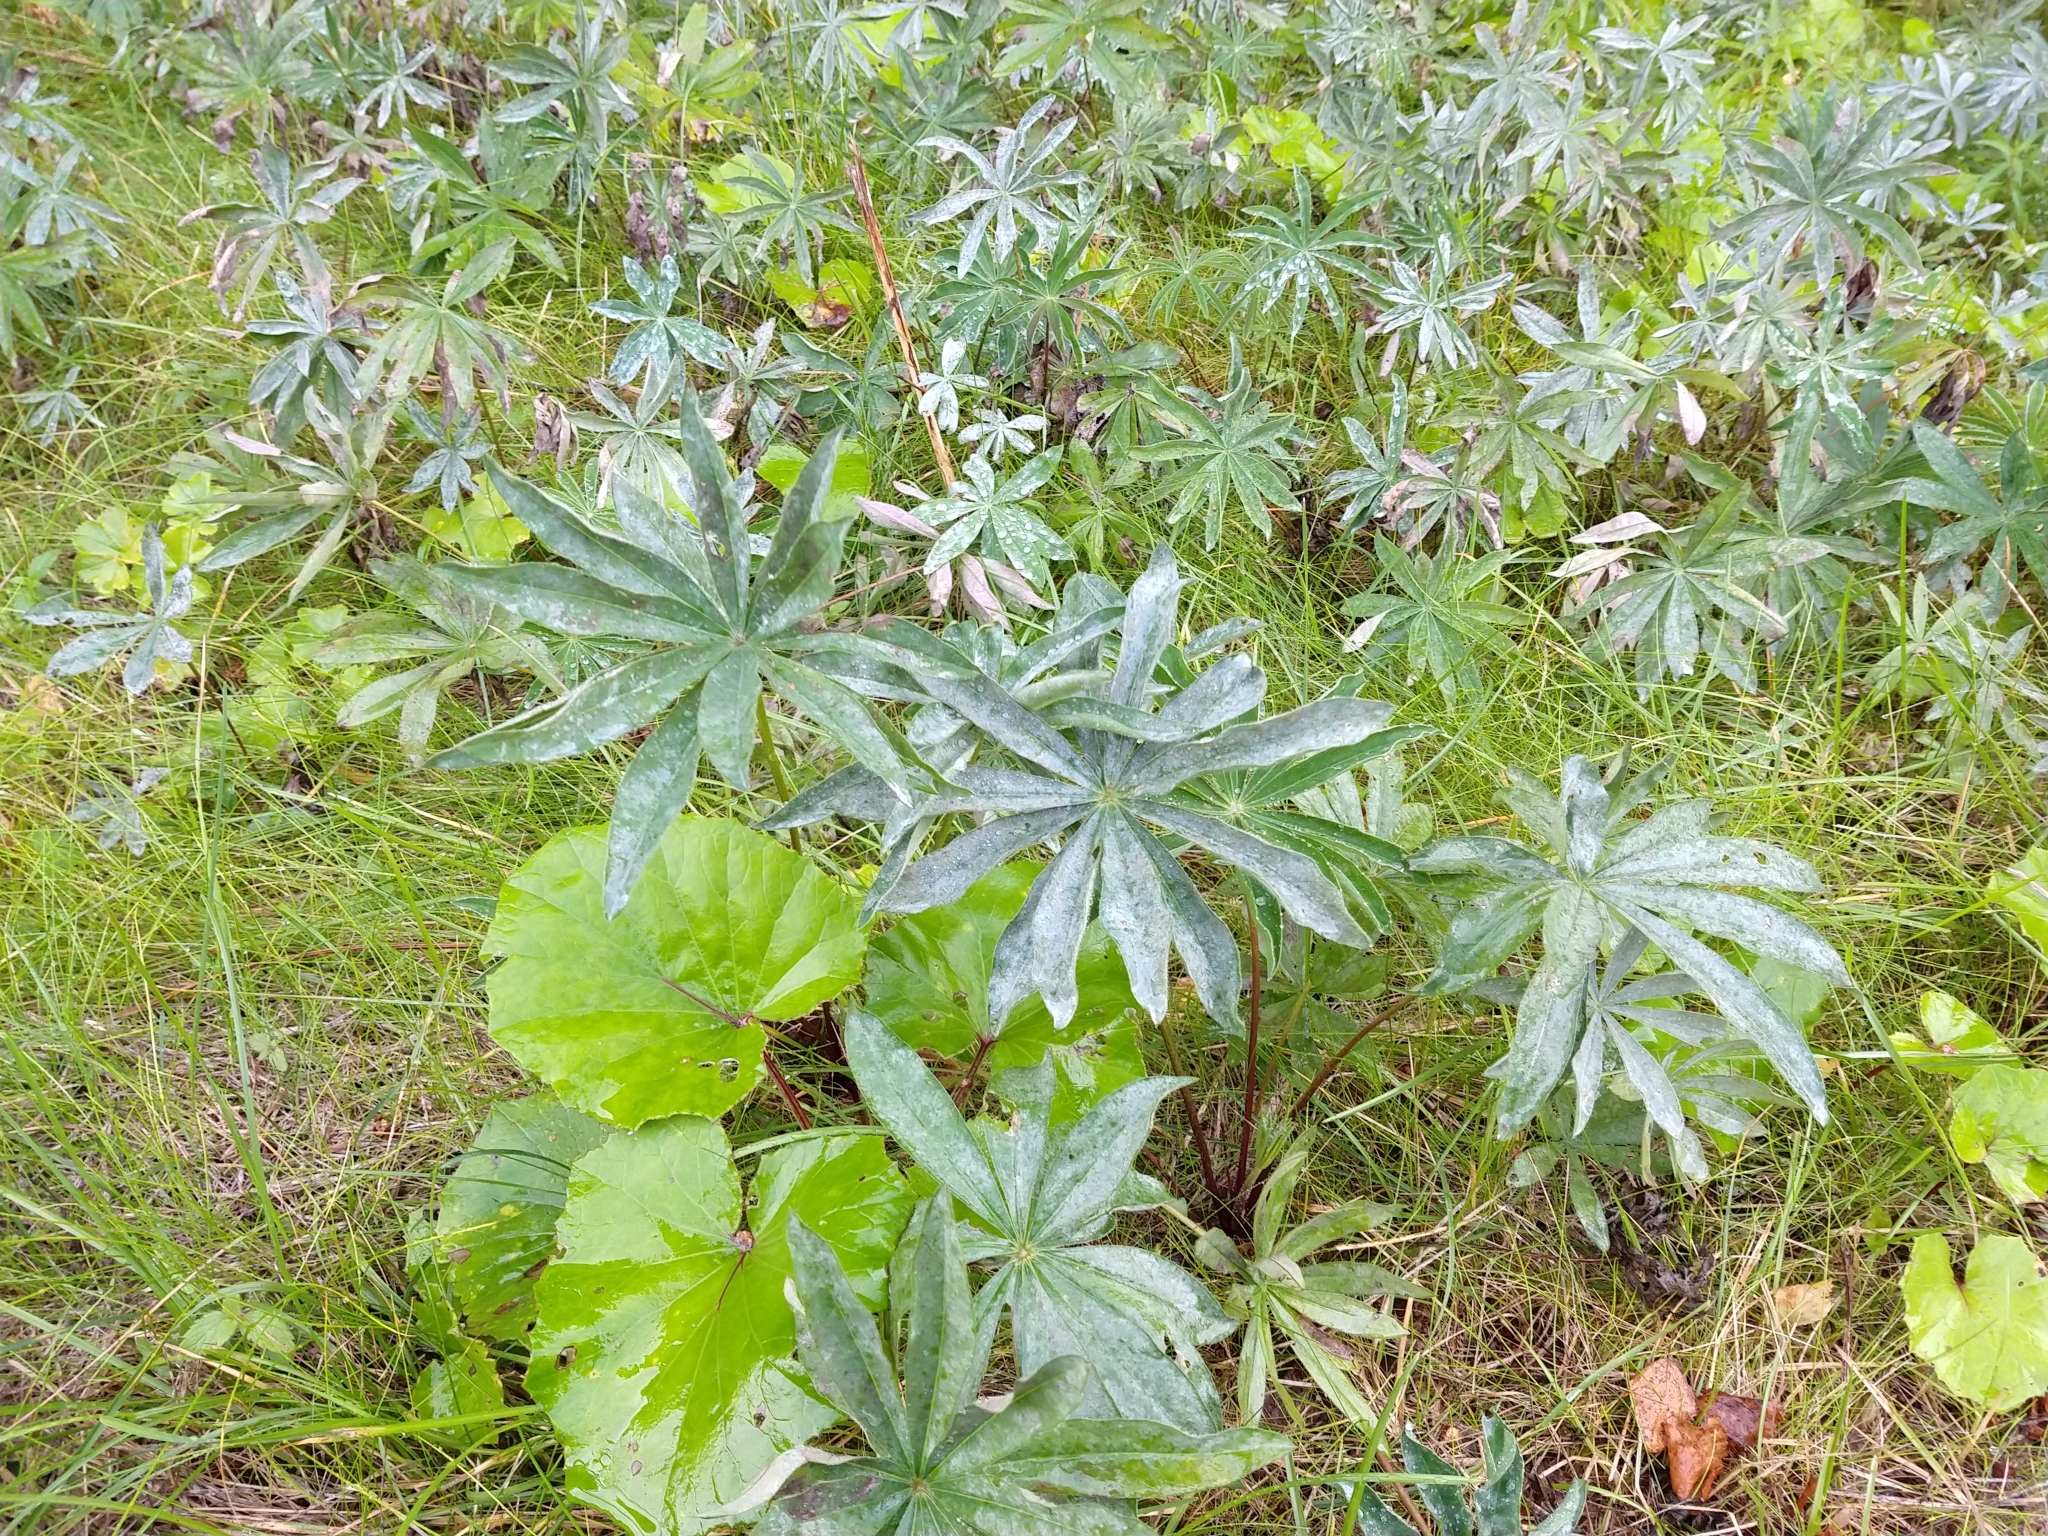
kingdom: Plantae
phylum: Tracheophyta
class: Magnoliopsida
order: Fabales
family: Fabaceae
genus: Lupinus
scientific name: Lupinus polyphyllus
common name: Garden lupin
